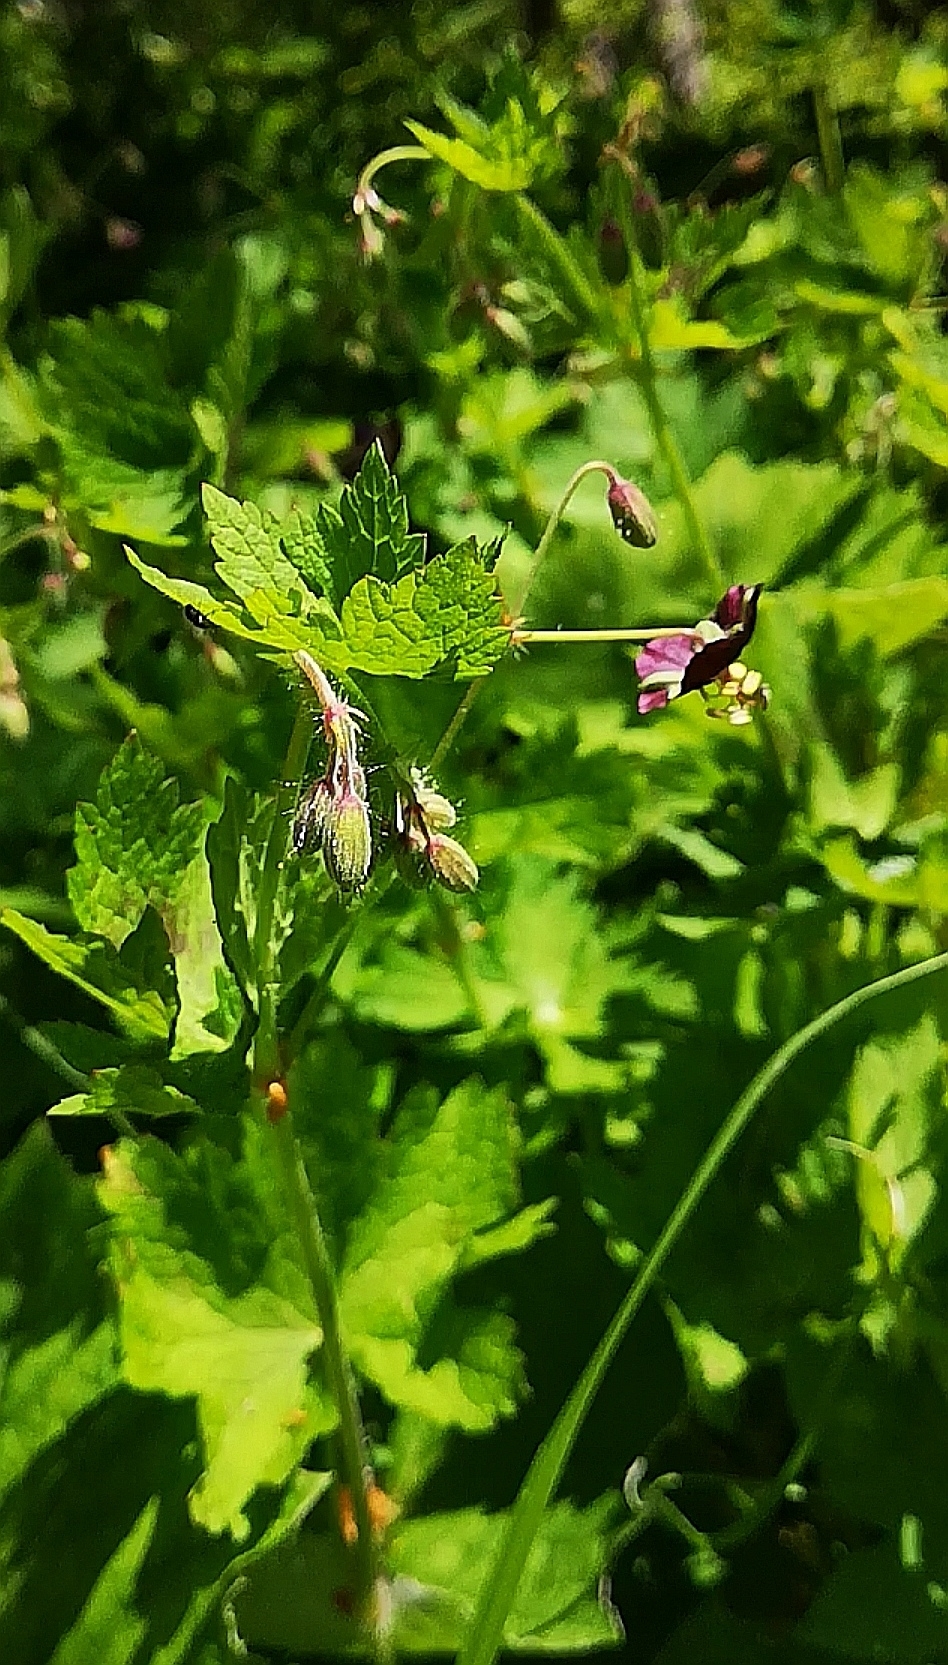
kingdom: Plantae
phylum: Tracheophyta
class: Magnoliopsida
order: Geraniales
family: Geraniaceae
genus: Geranium
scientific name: Geranium phaeum
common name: Dusky crane's-bill
